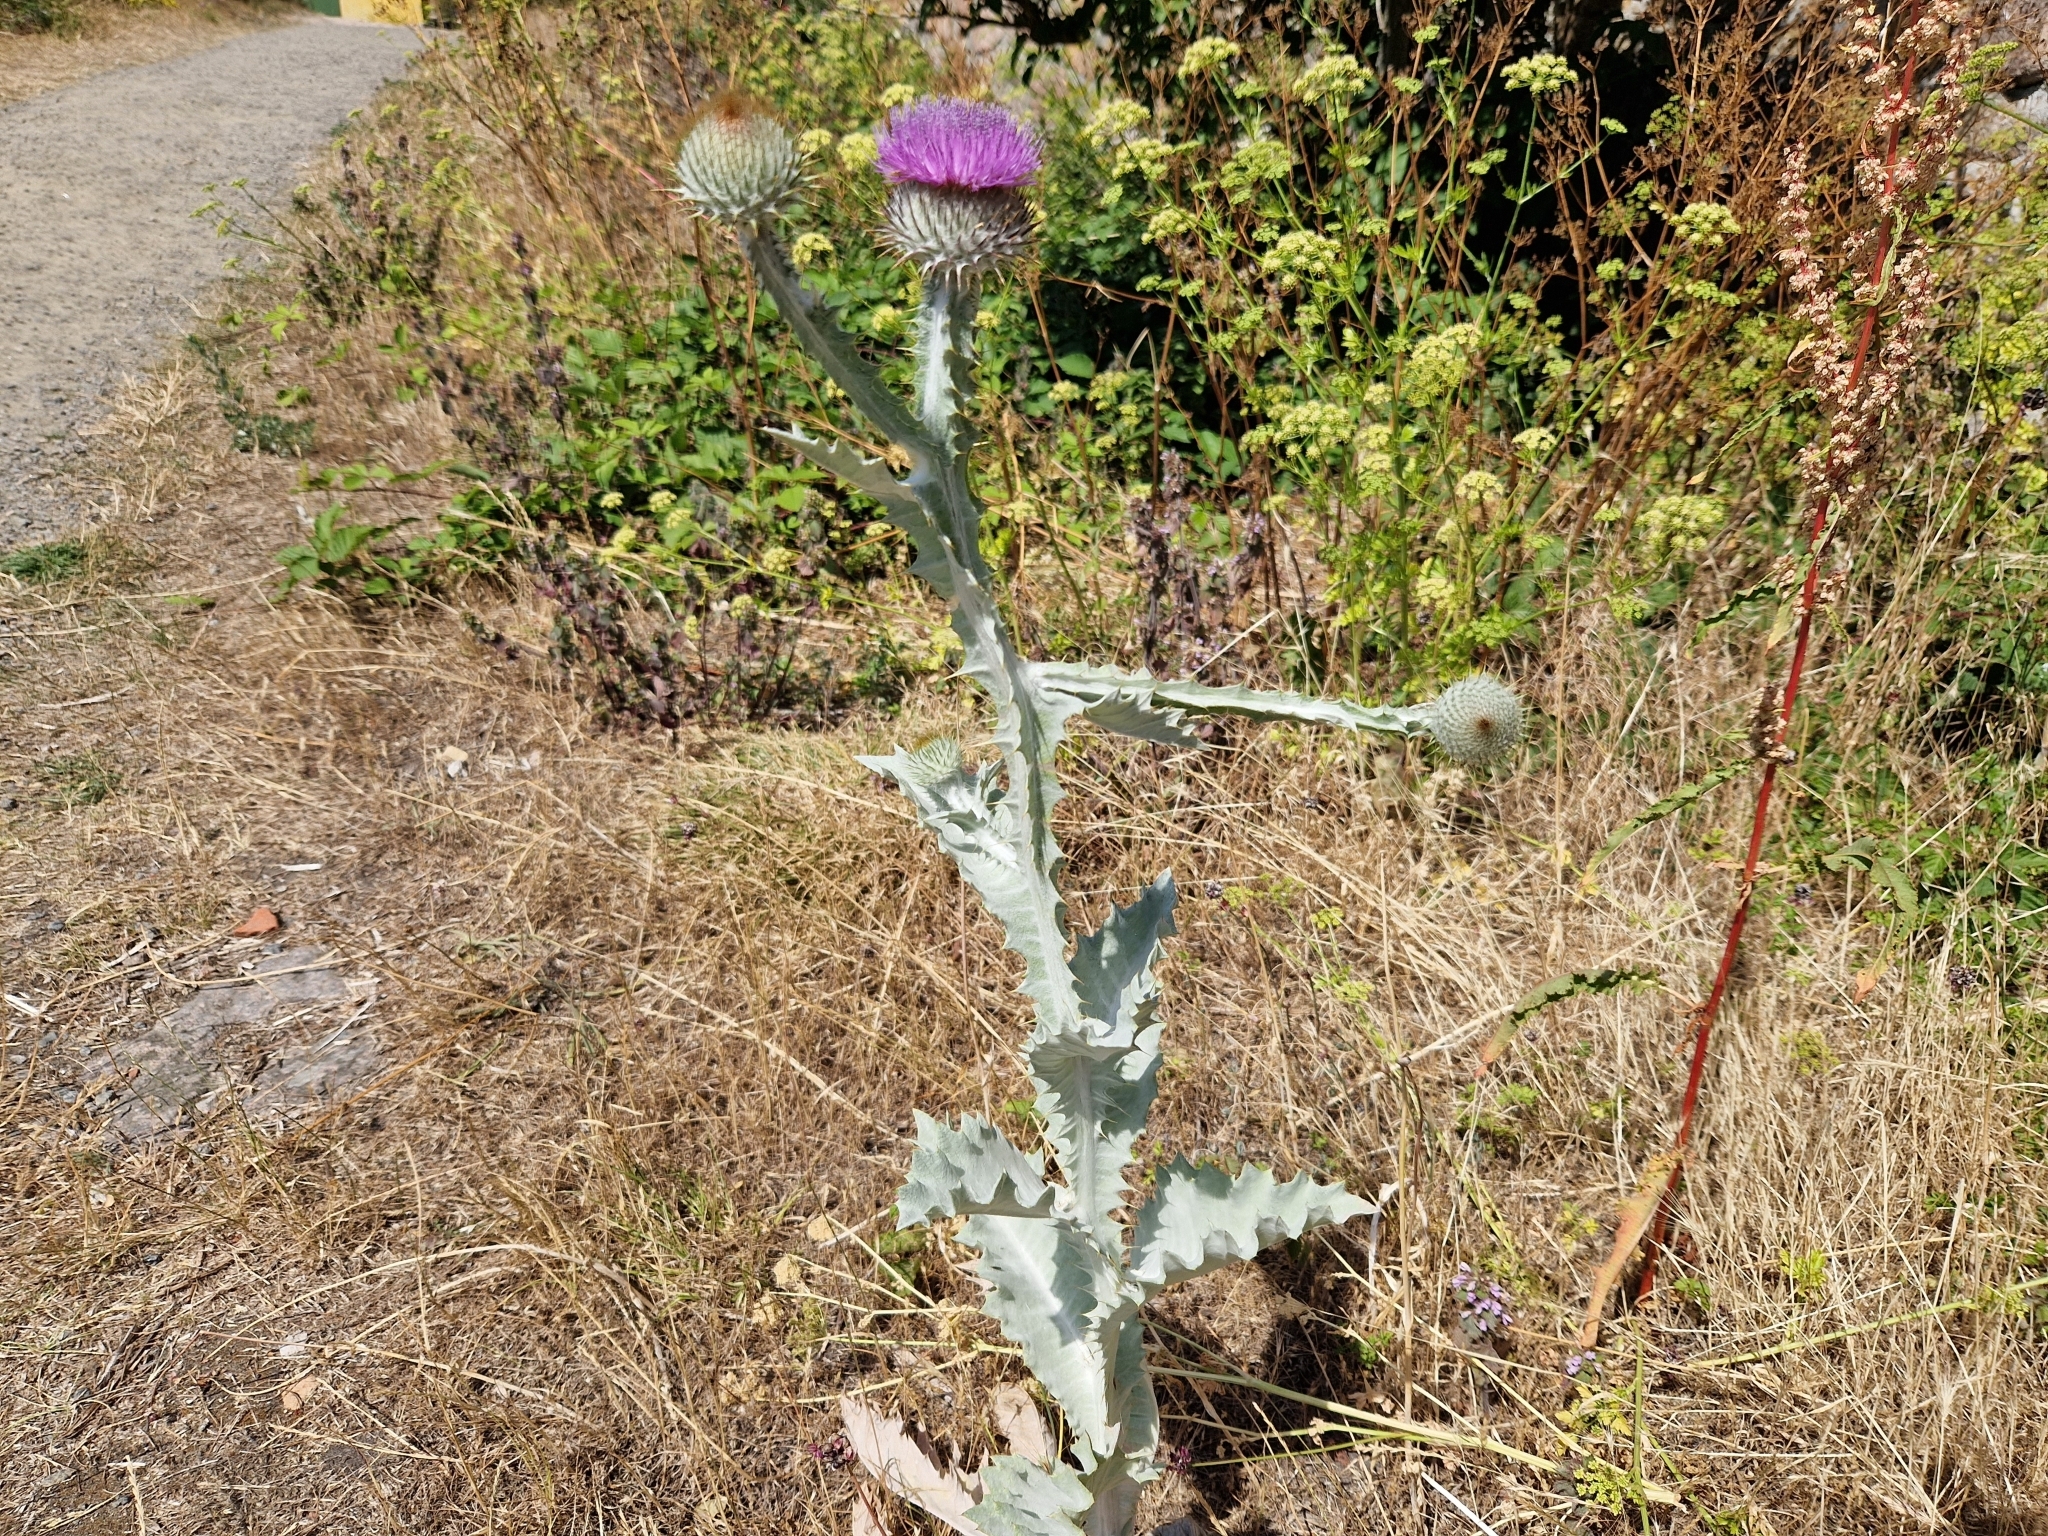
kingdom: Plantae
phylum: Tracheophyta
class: Magnoliopsida
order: Asterales
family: Asteraceae
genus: Onopordum
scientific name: Onopordum acanthium
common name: Scotch thistle
